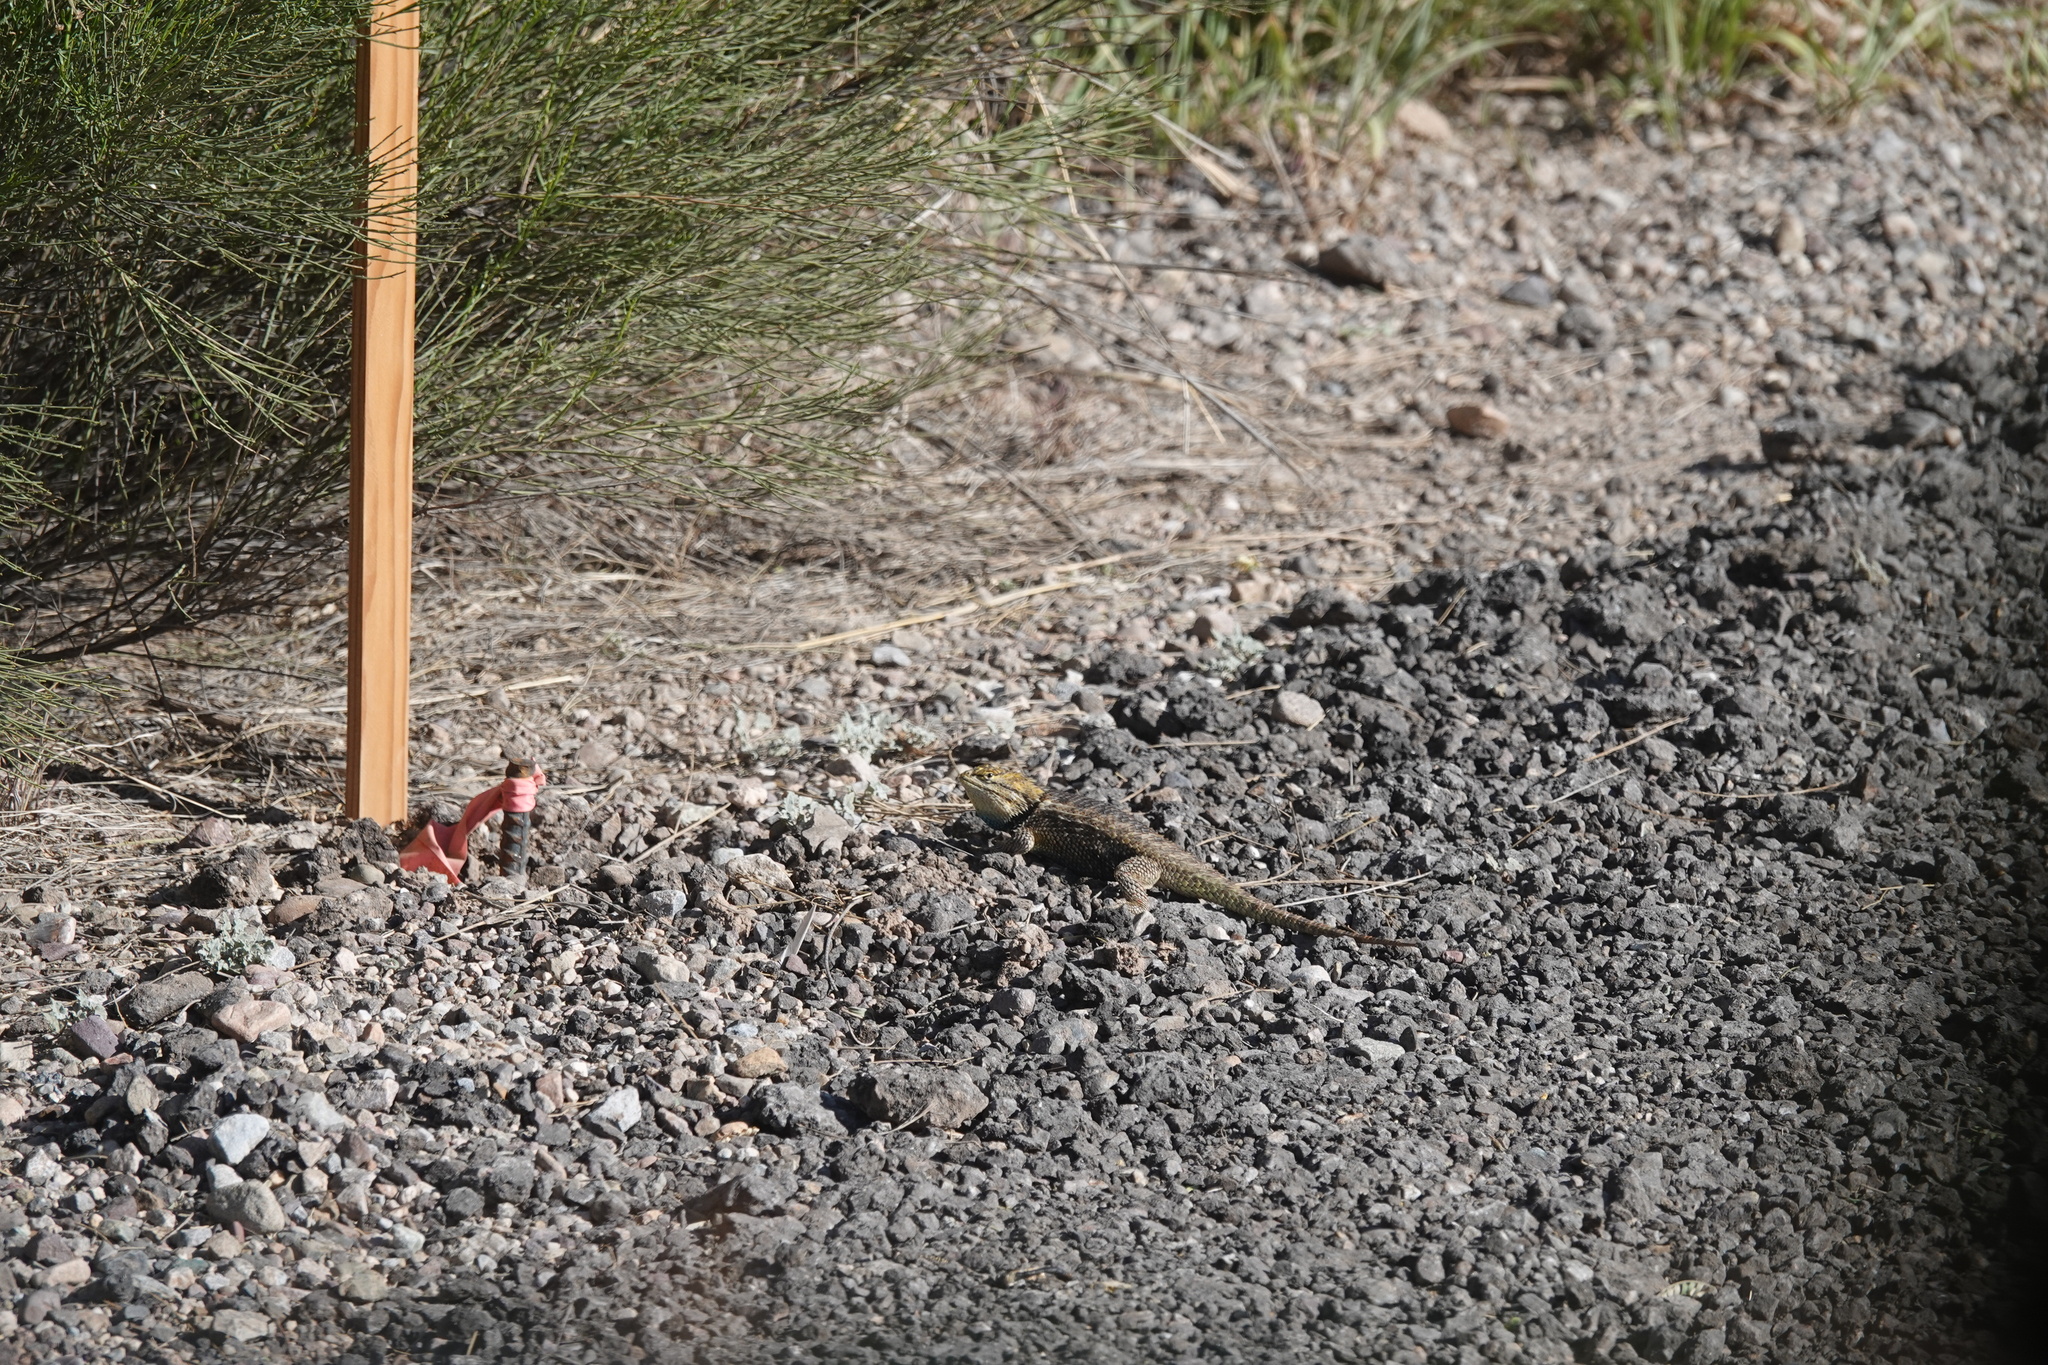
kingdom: Animalia
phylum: Chordata
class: Squamata
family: Phrynosomatidae
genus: Sceloporus
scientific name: Sceloporus magister
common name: Desert spiny lizard
